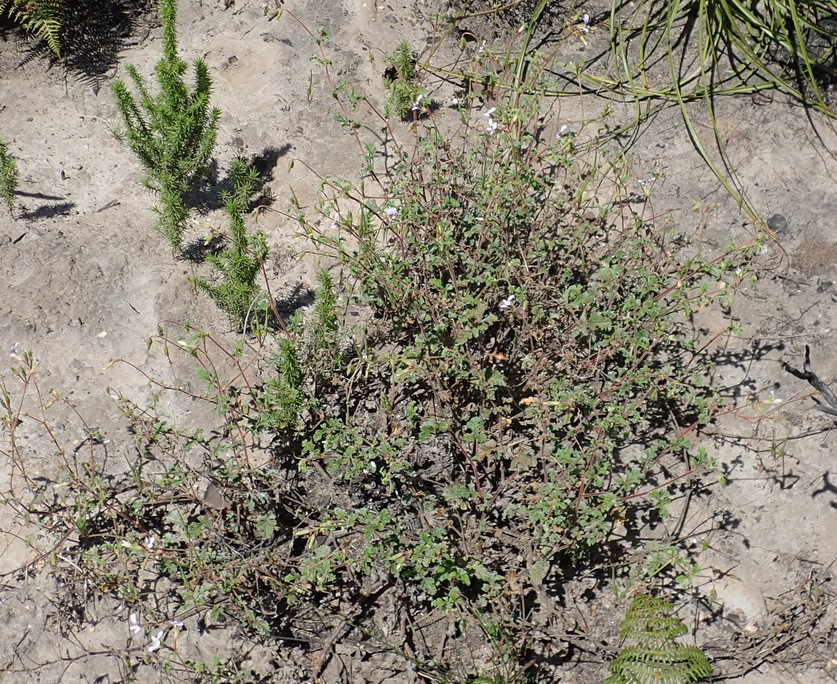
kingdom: Plantae
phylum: Tracheophyta
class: Magnoliopsida
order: Geraniales
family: Geraniaceae
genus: Pelargonium
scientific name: Pelargonium candicans
